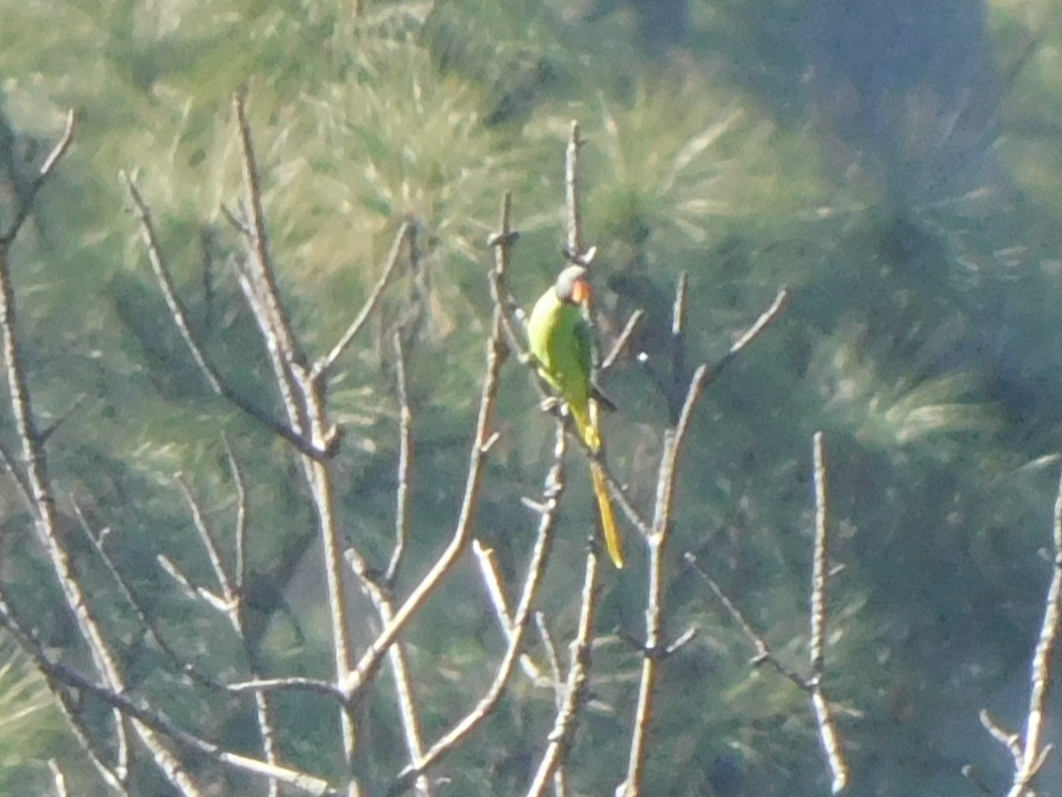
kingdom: Animalia
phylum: Chordata
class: Aves
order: Psittaciformes
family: Psittacidae
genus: Psittacula
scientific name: Psittacula himalayana
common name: Slaty-headed parakeet
